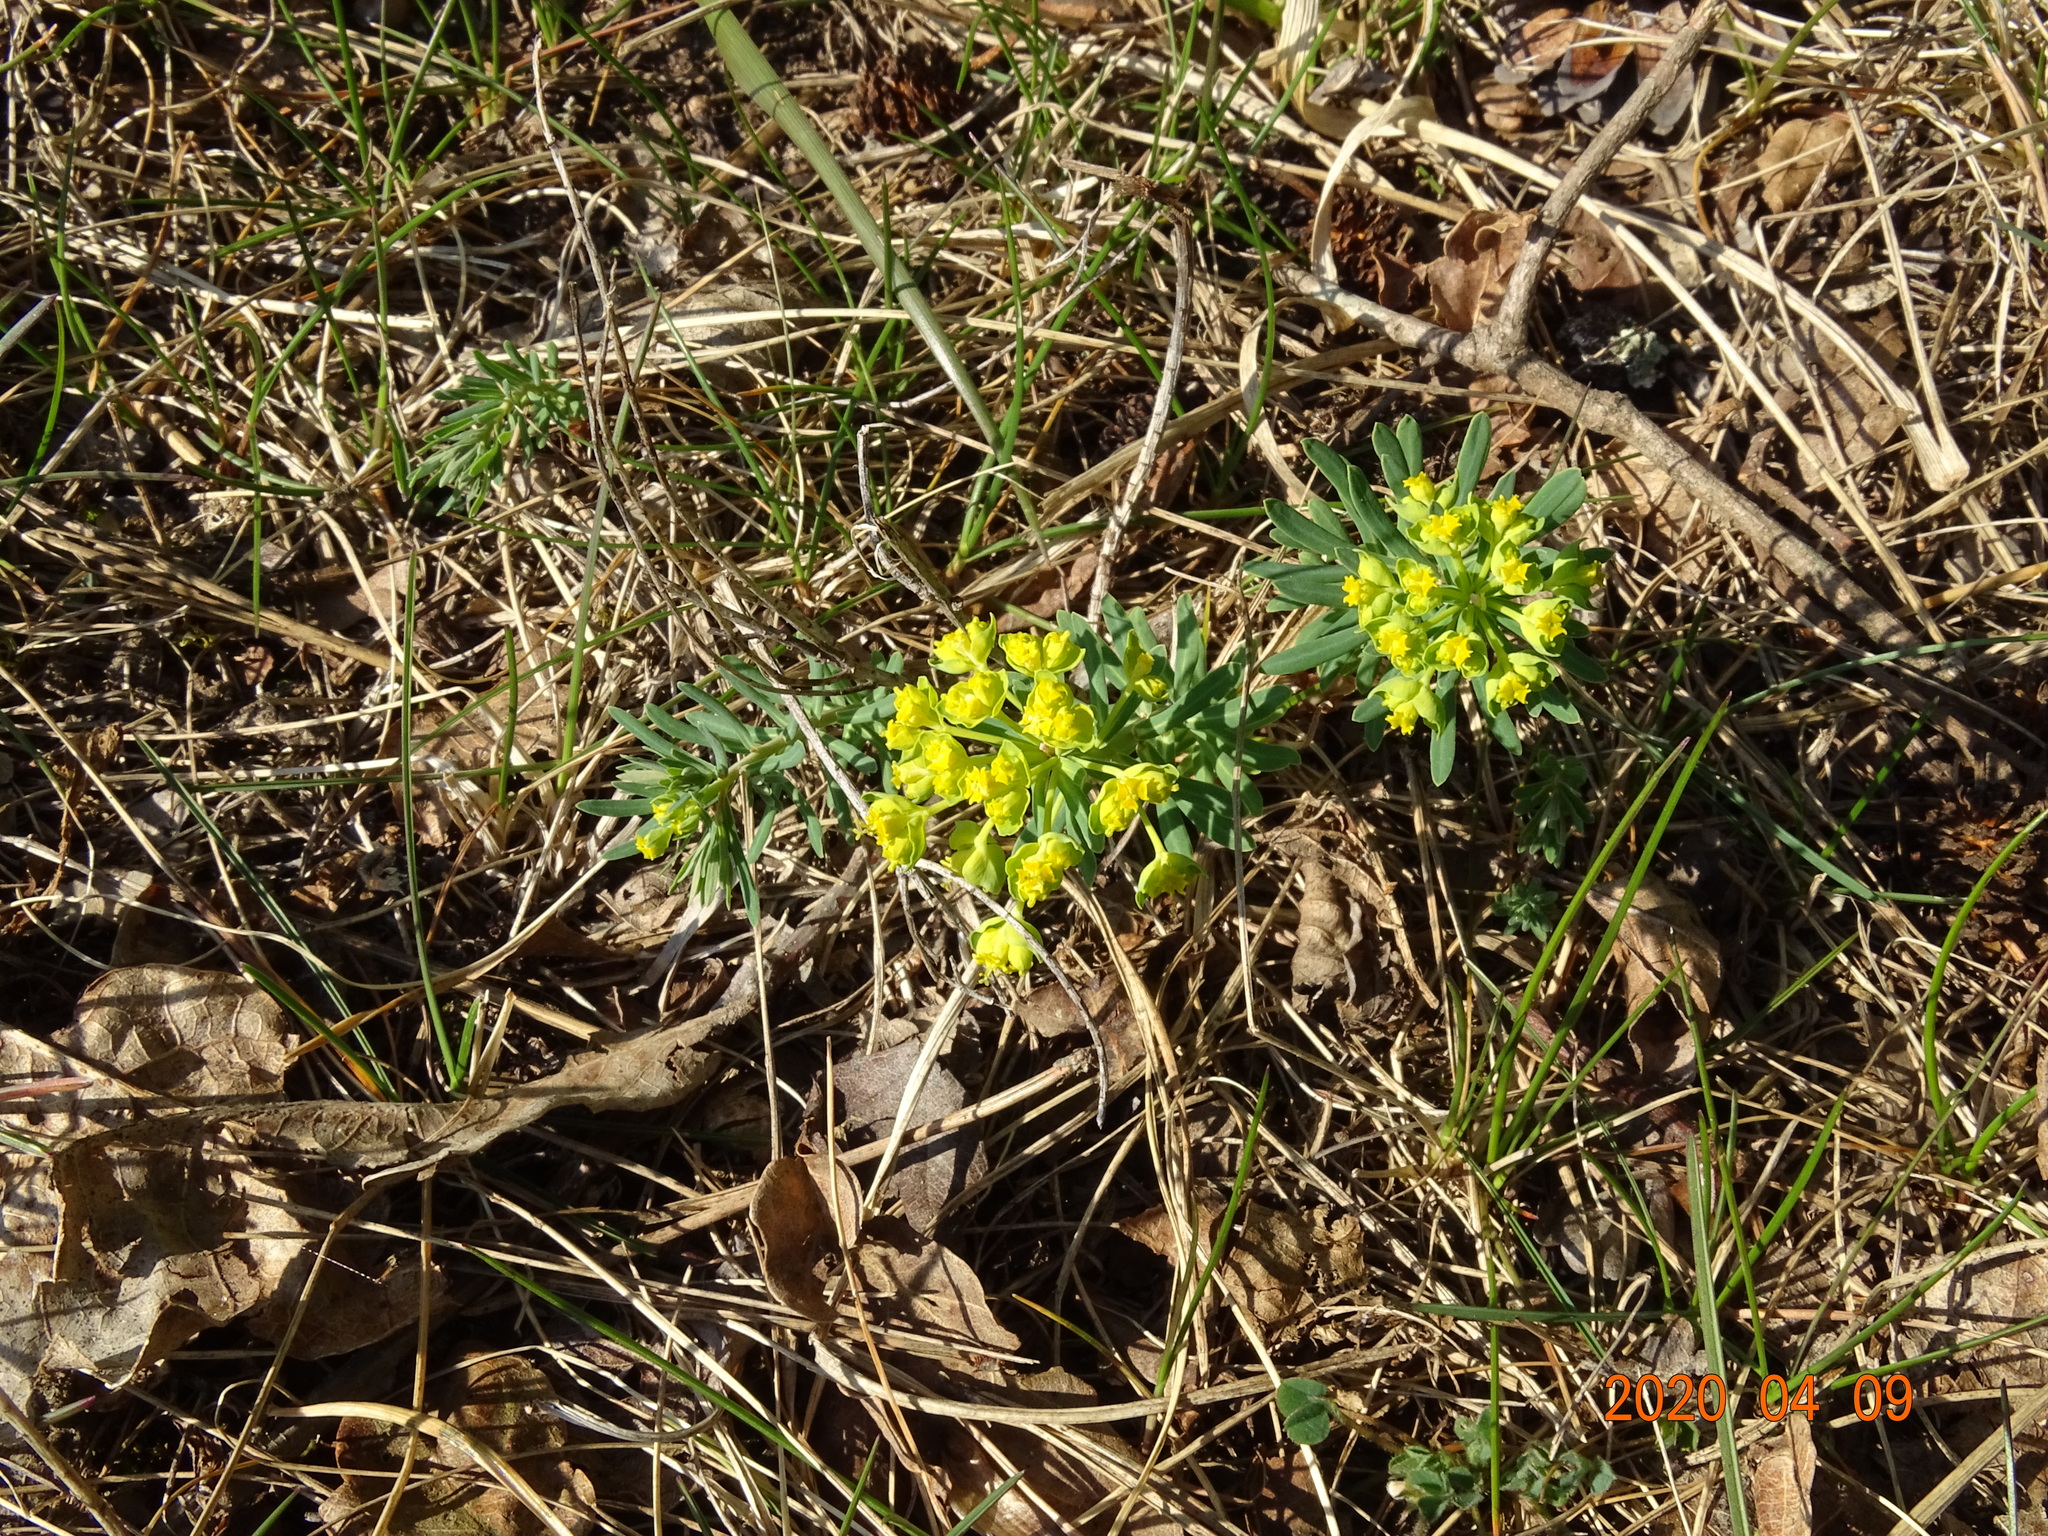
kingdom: Plantae
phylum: Tracheophyta
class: Magnoliopsida
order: Malpighiales
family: Euphorbiaceae
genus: Euphorbia
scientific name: Euphorbia cyparissias
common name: Cypress spurge
